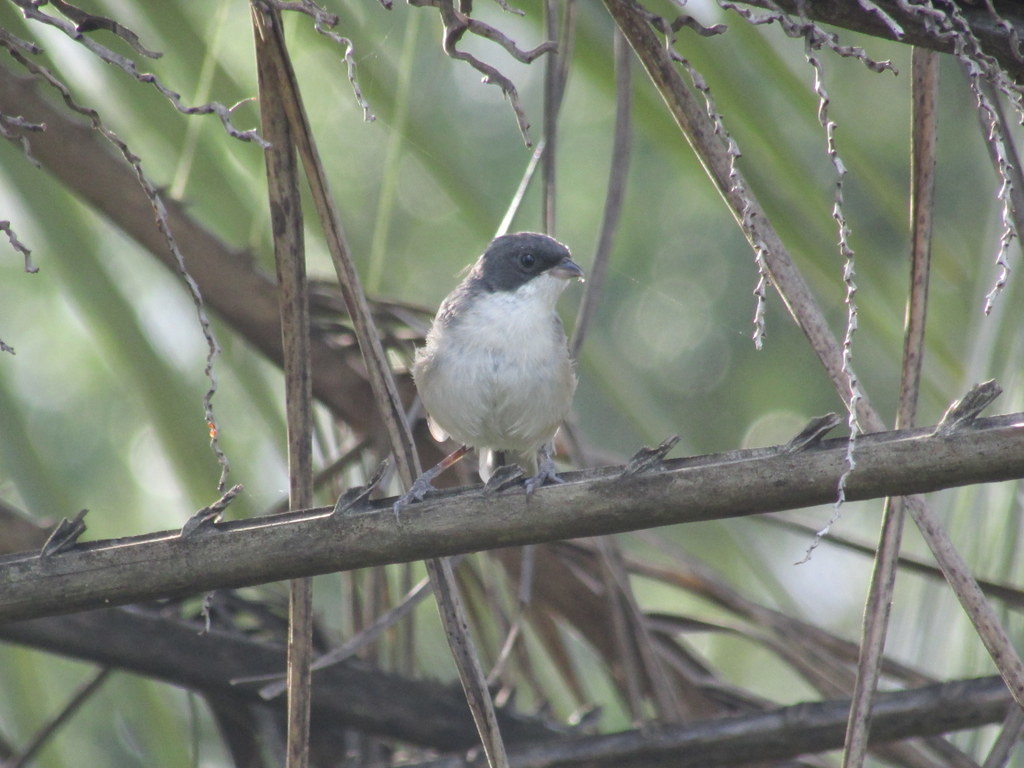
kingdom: Animalia
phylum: Chordata
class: Aves
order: Passeriformes
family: Thraupidae
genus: Microspingus
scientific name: Microspingus melanoleucus
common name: Black-capped warbling-finch
